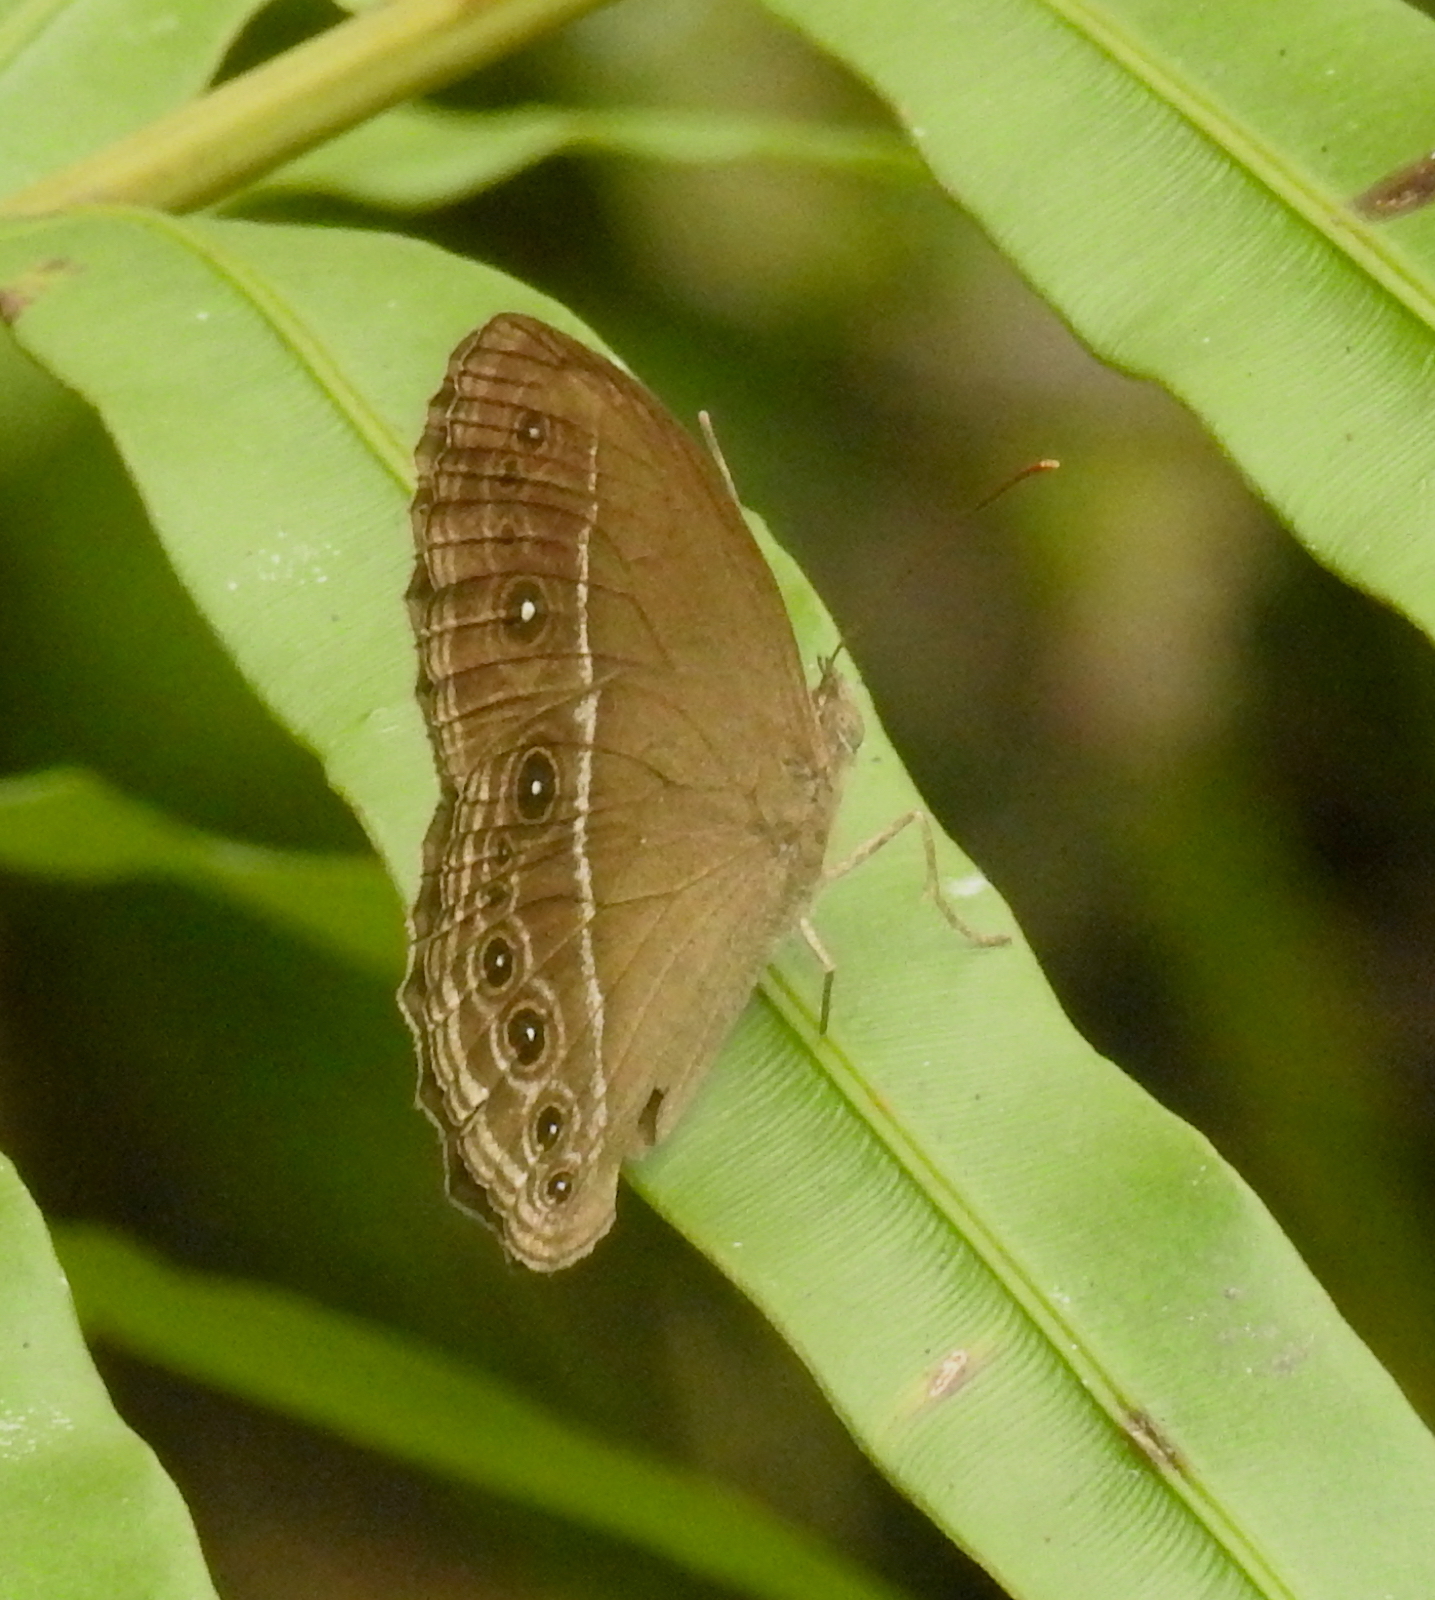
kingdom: Animalia
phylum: Arthropoda
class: Insecta
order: Lepidoptera
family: Nymphalidae
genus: Mycalesis
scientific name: Mycalesis perseus
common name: Dingy bushbrown
